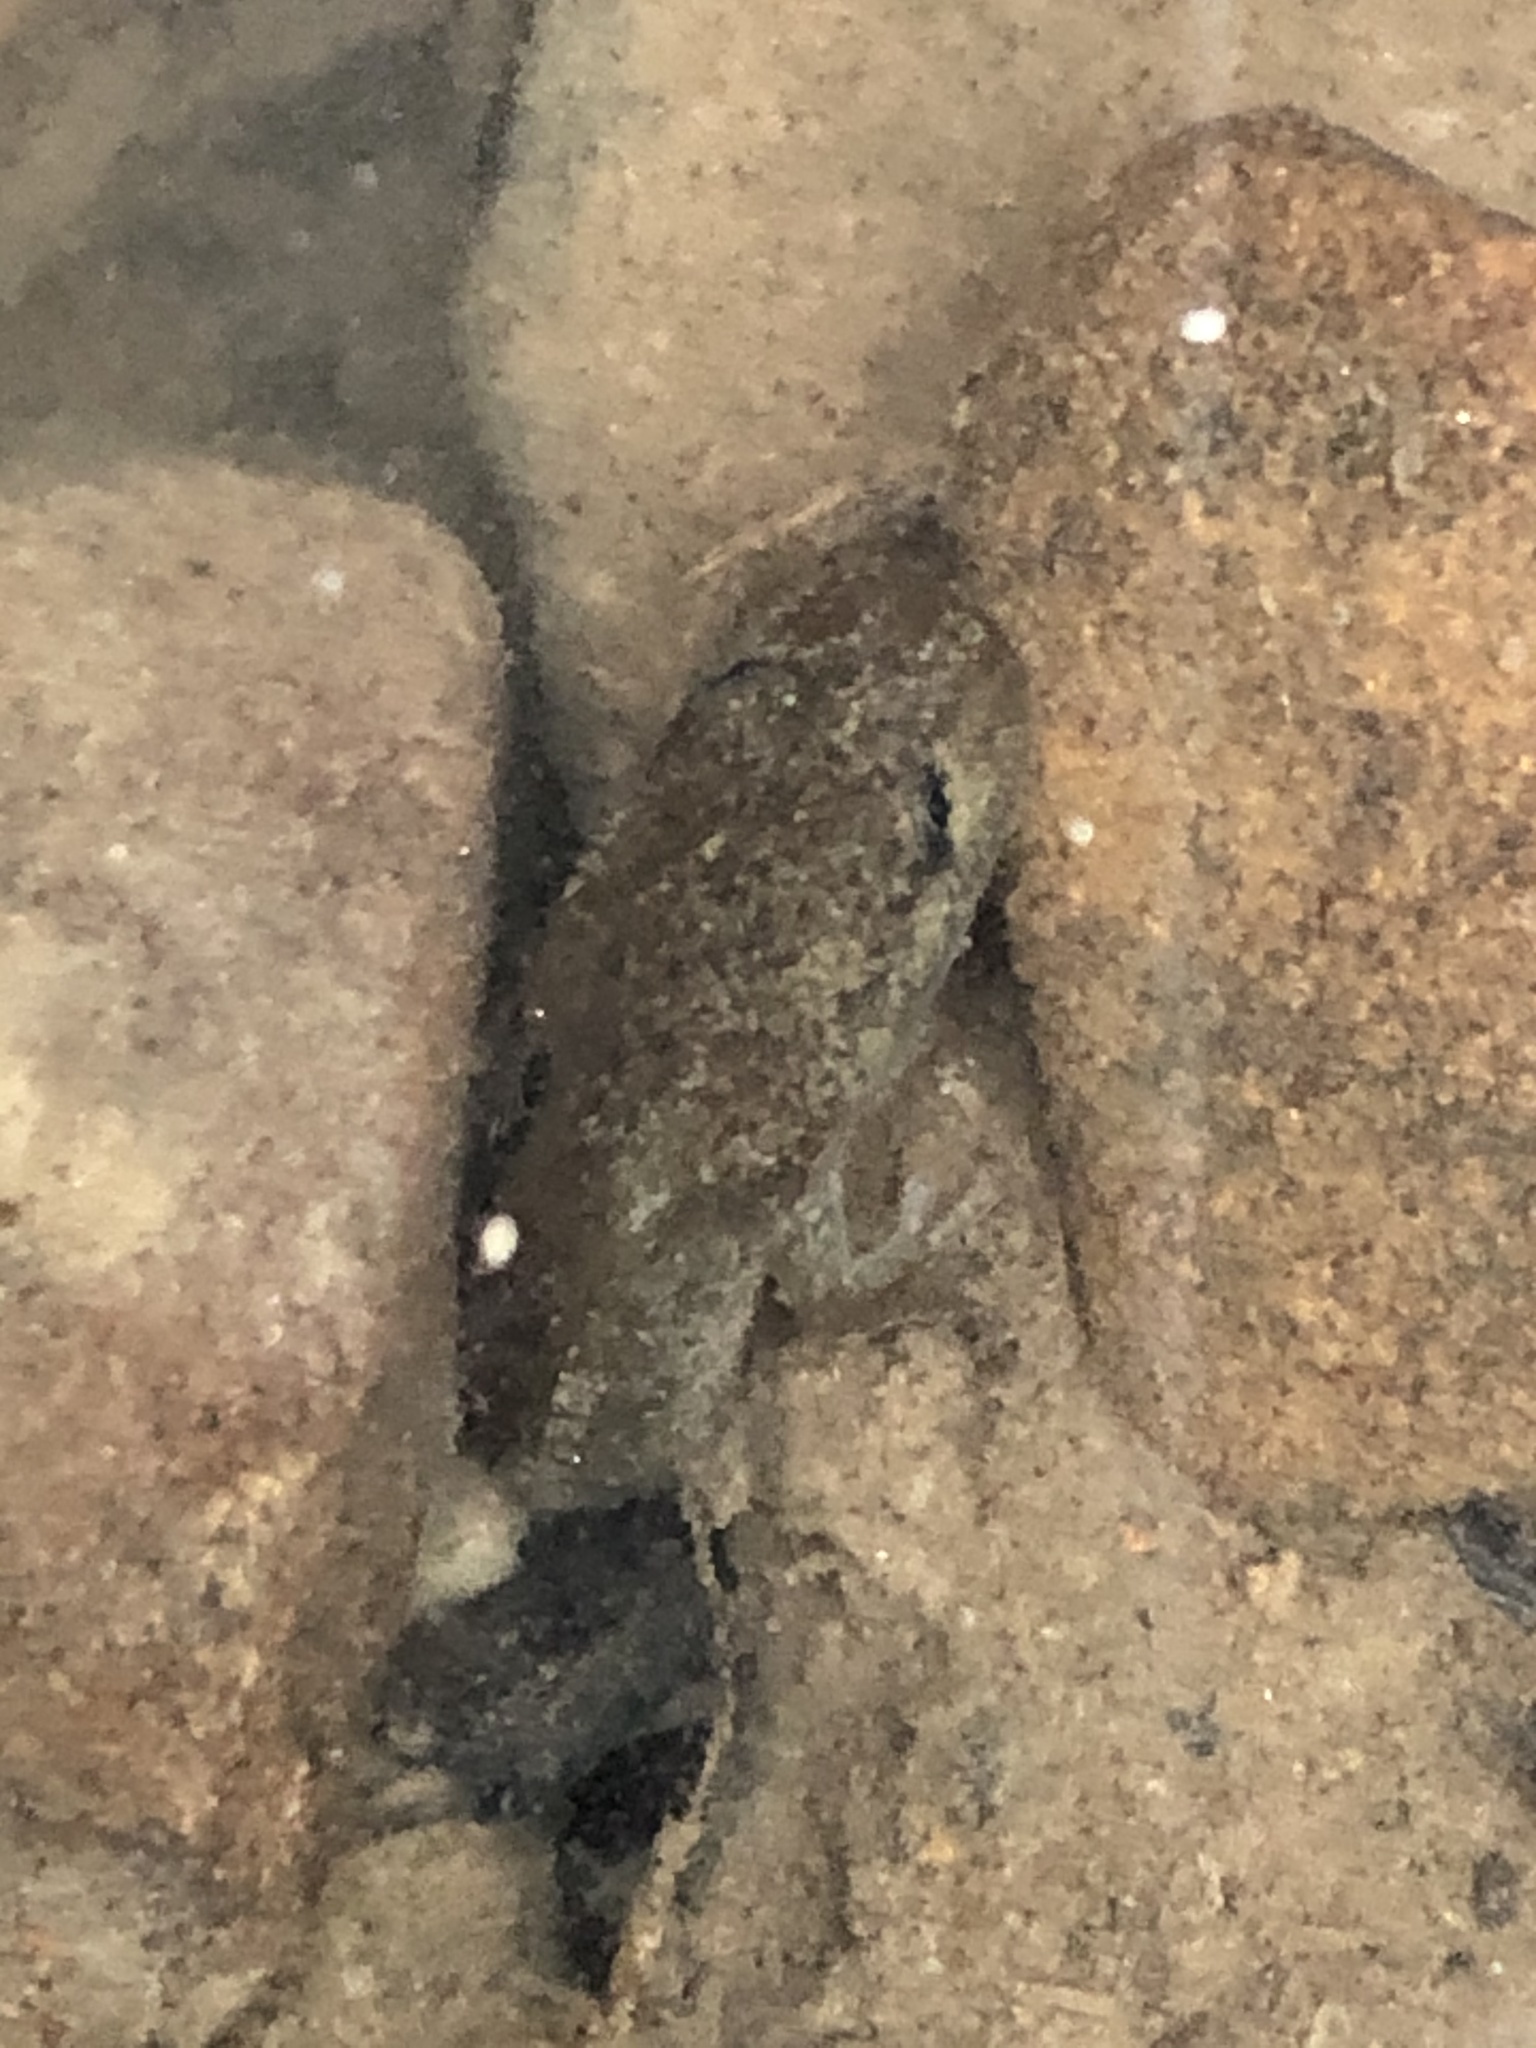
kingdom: Animalia
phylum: Chordata
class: Amphibia
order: Caudata
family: Ambystomatidae
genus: Dicamptodon
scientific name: Dicamptodon tenebrosus
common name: Coastal giant salamander
